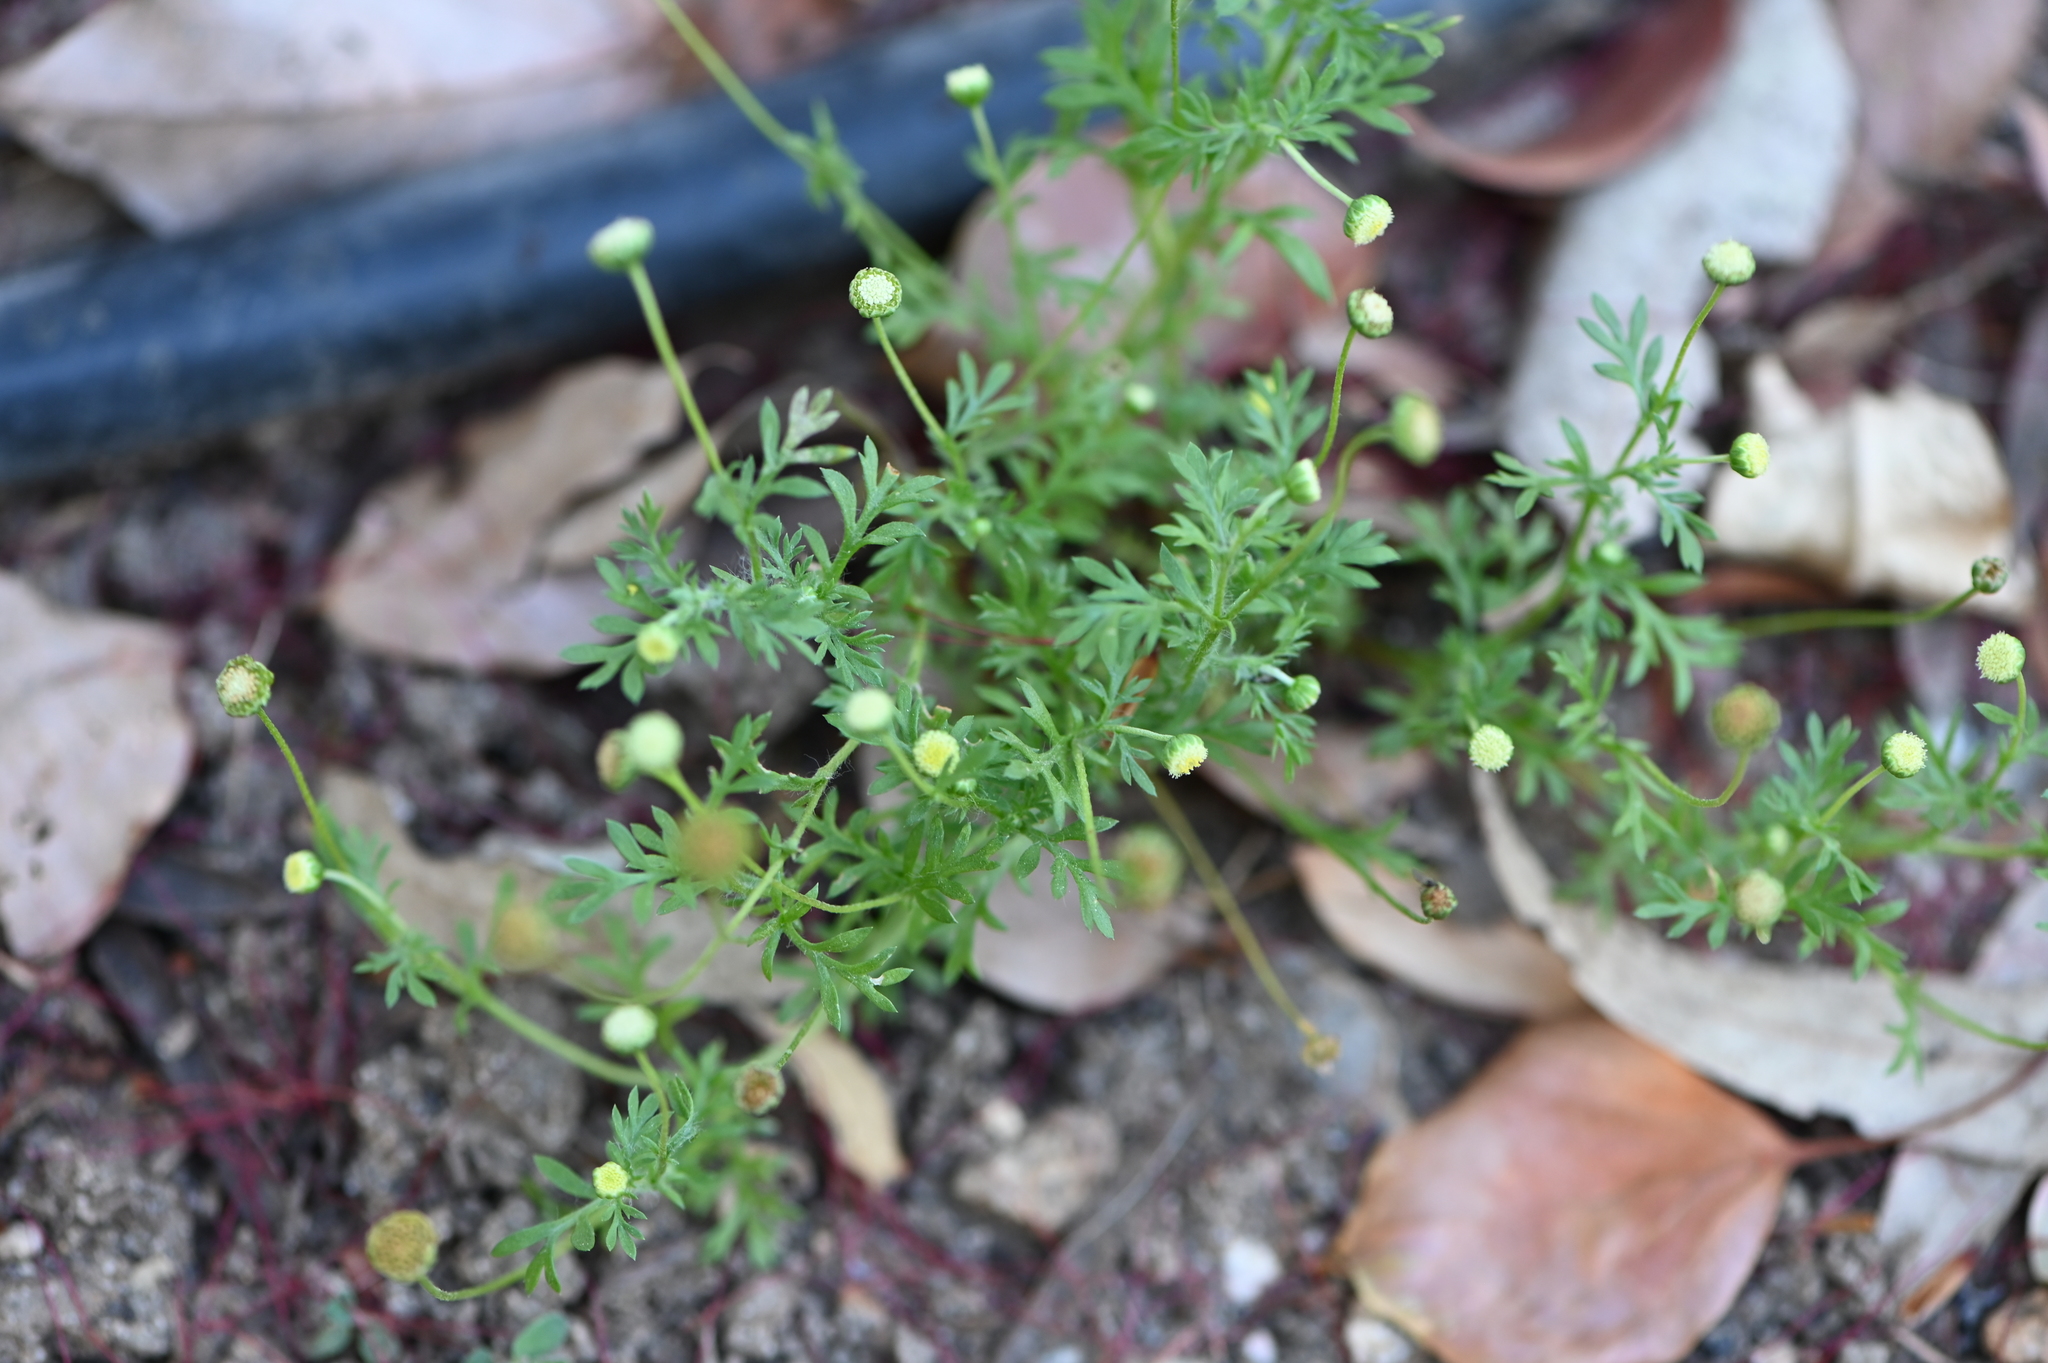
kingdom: Plantae
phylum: Tracheophyta
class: Magnoliopsida
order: Asterales
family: Asteraceae
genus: Cotula
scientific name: Cotula australis
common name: Australian waterbuttons
